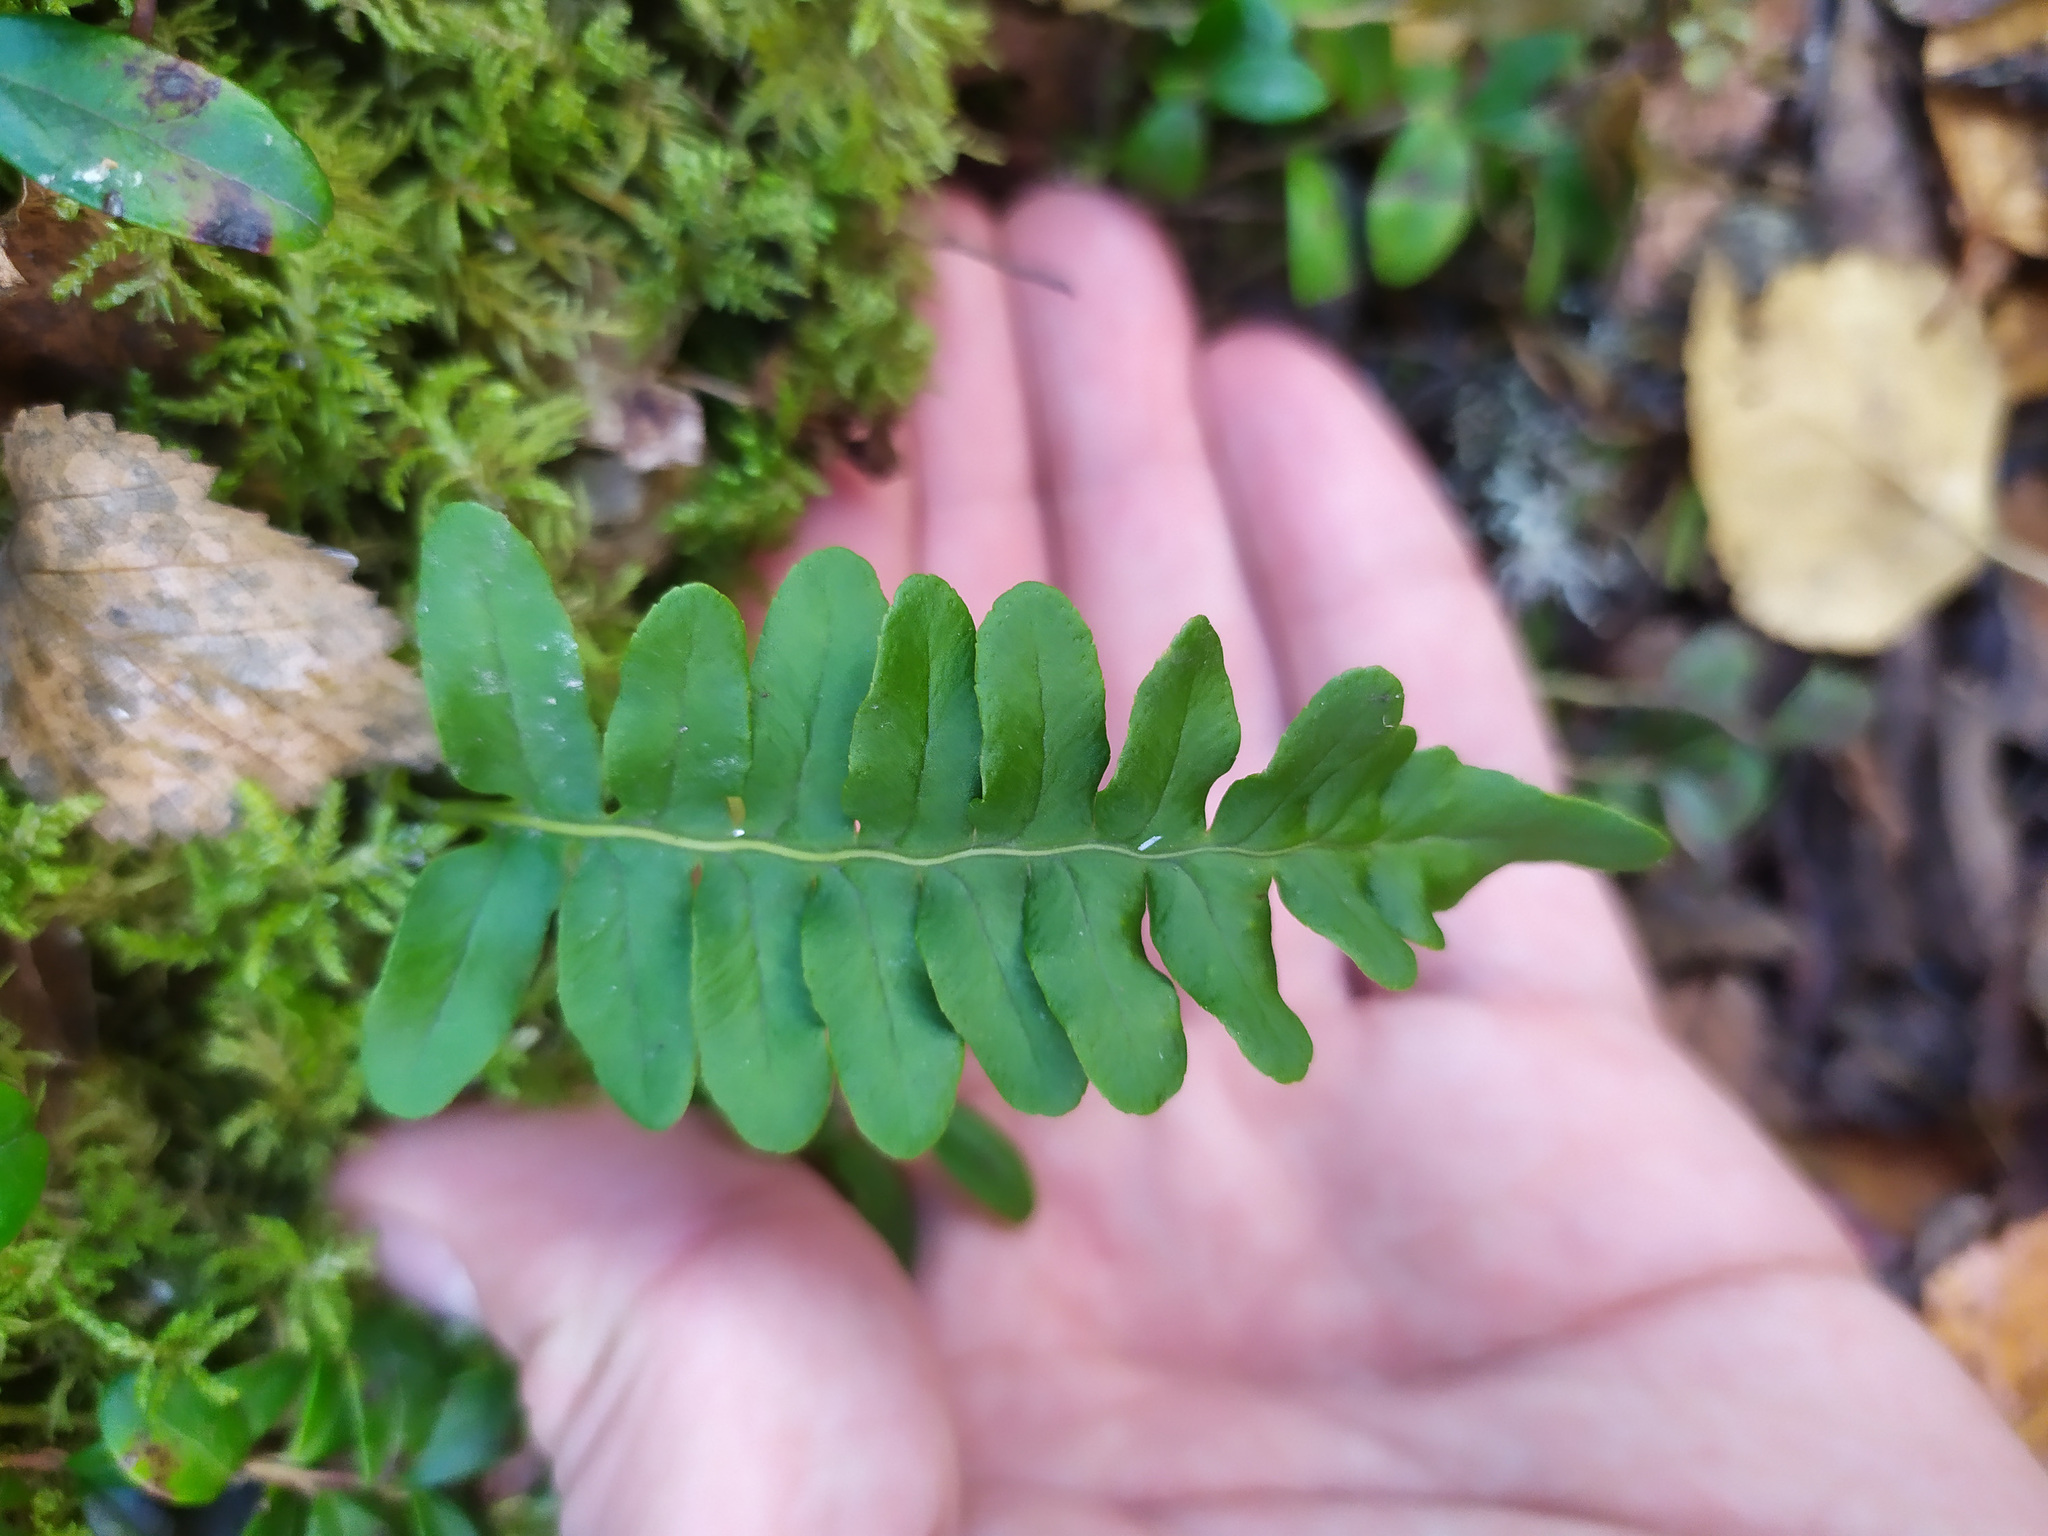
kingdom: Plantae
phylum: Tracheophyta
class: Polypodiopsida
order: Polypodiales
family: Polypodiaceae
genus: Polypodium
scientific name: Polypodium vulgare
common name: Common polypody
